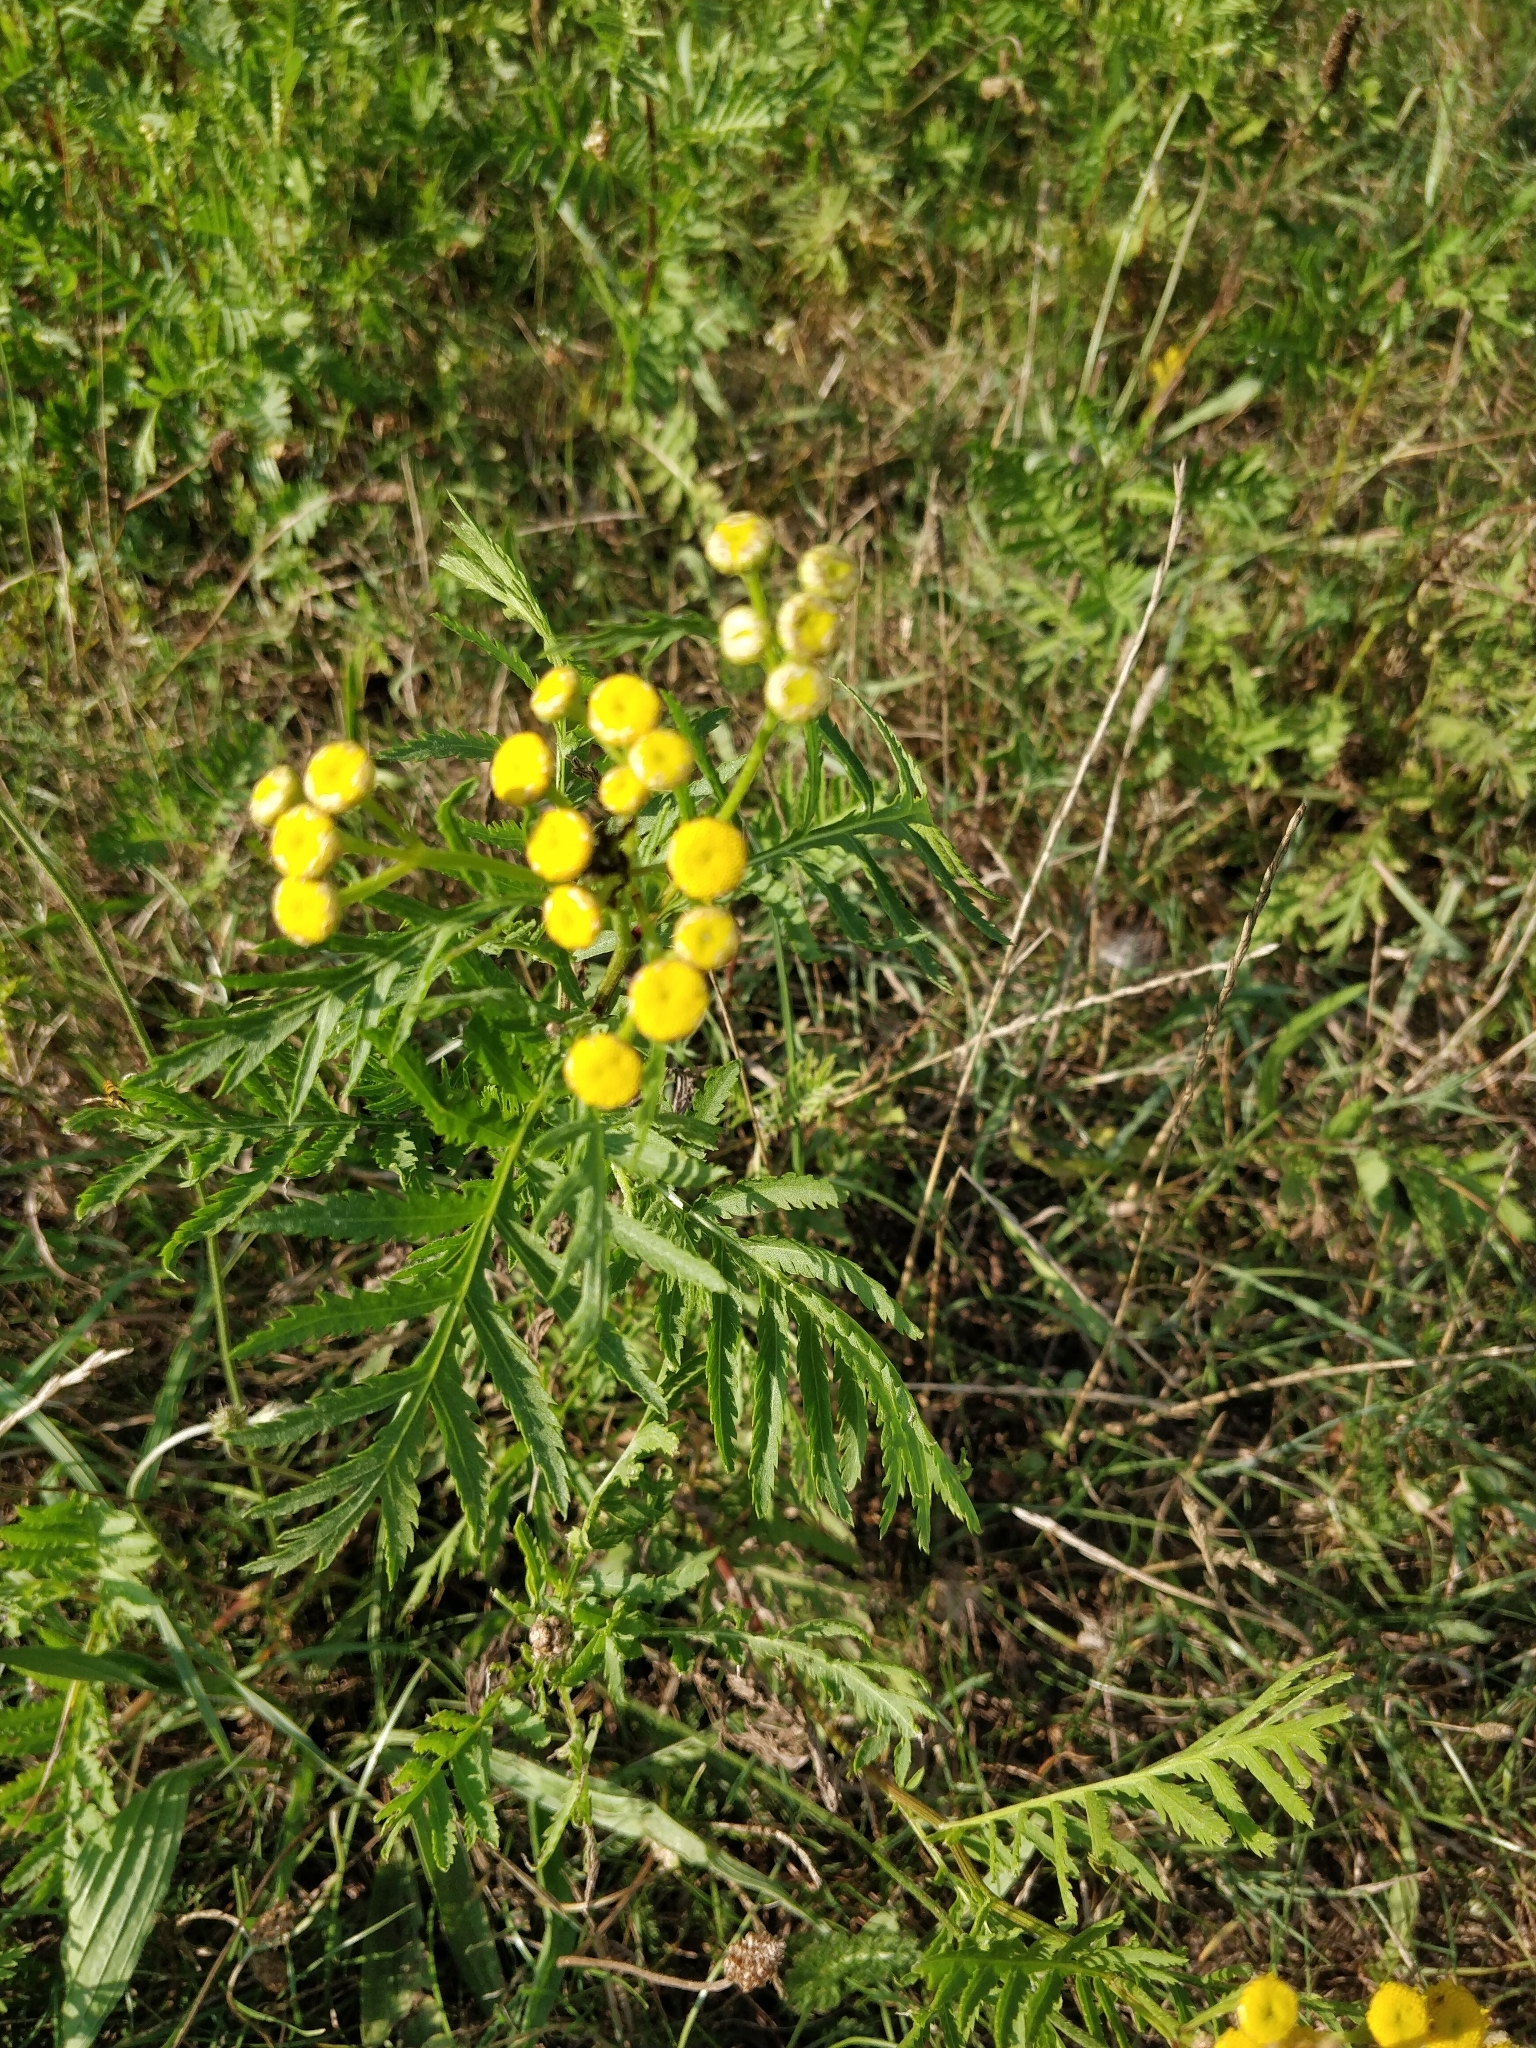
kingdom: Plantae
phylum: Tracheophyta
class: Magnoliopsida
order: Asterales
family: Asteraceae
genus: Tanacetum
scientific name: Tanacetum vulgare
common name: Common tansy
